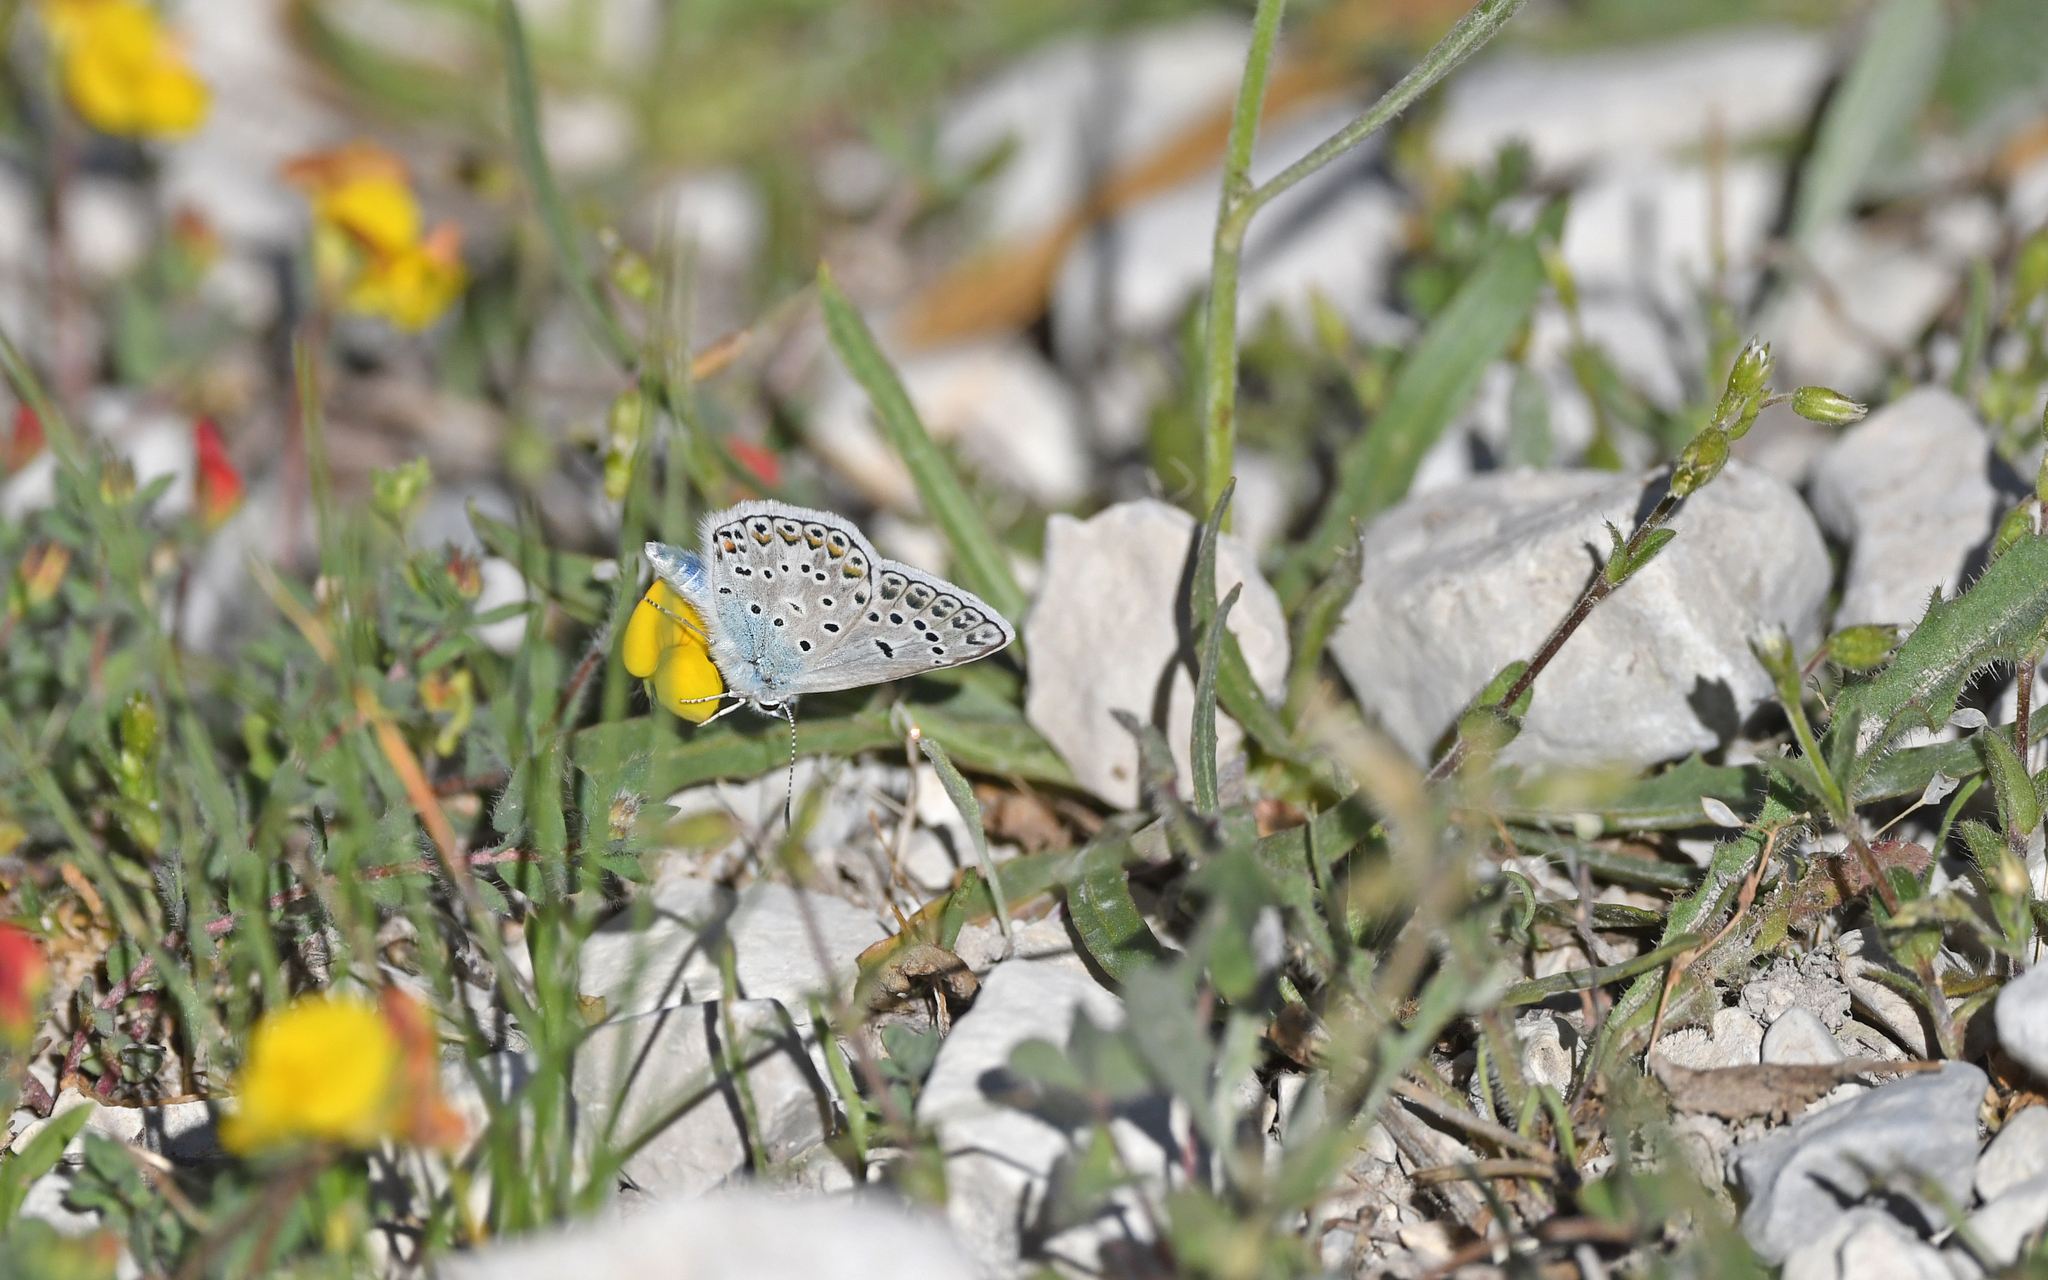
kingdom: Animalia
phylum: Arthropoda
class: Insecta
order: Lepidoptera
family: Lycaenidae
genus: Plebicula
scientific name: Plebicula escheri
